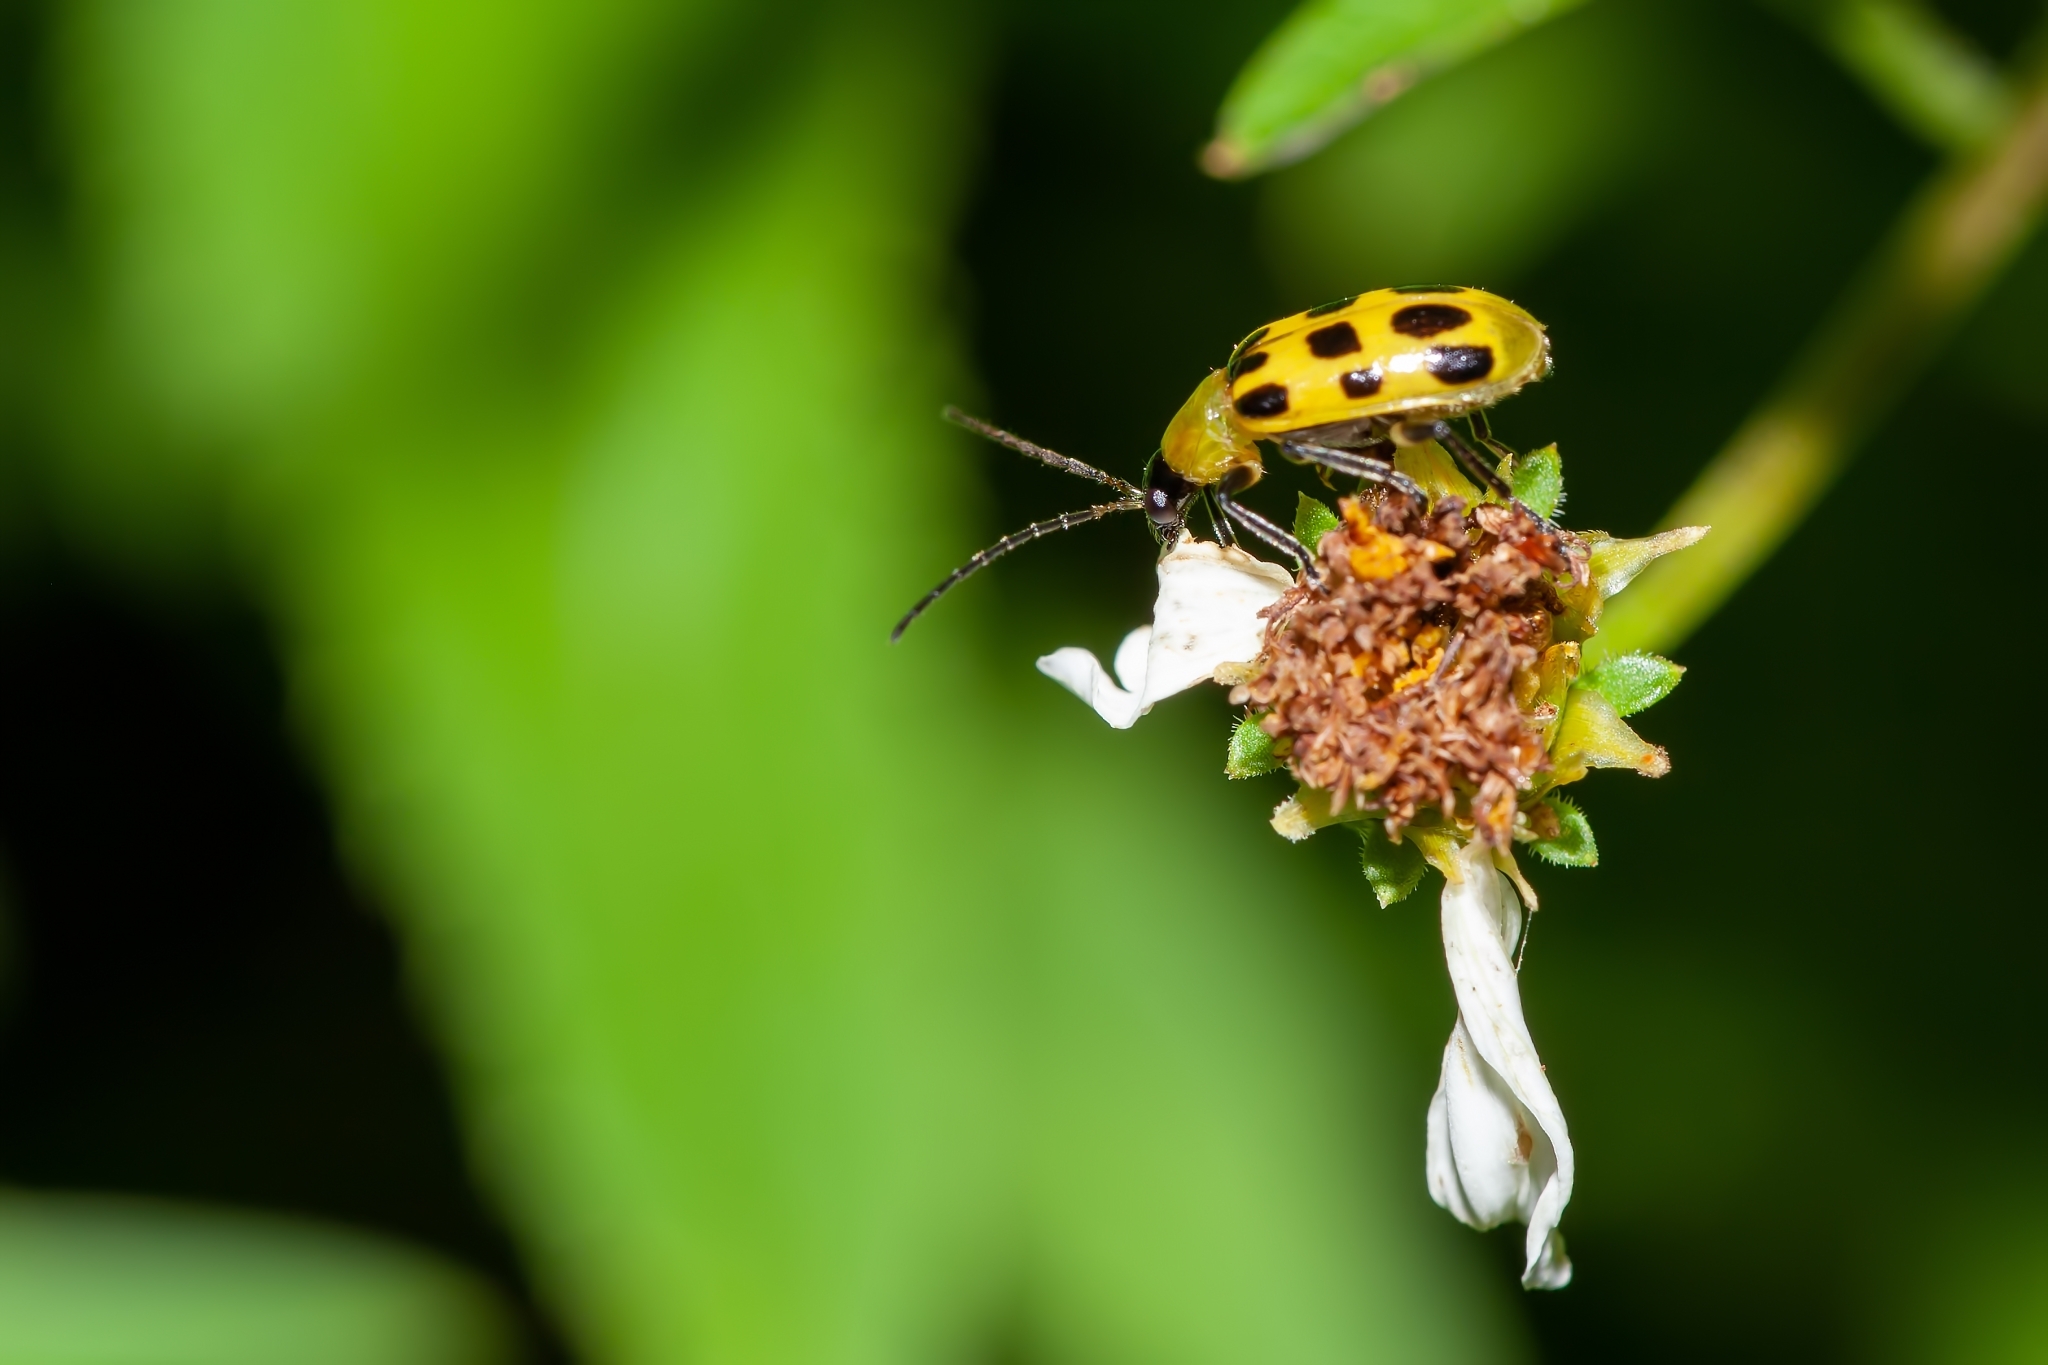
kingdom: Animalia
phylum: Arthropoda
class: Insecta
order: Coleoptera
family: Chrysomelidae
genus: Diabrotica
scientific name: Diabrotica undecimpunctata
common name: Spotted cucumber beetle
